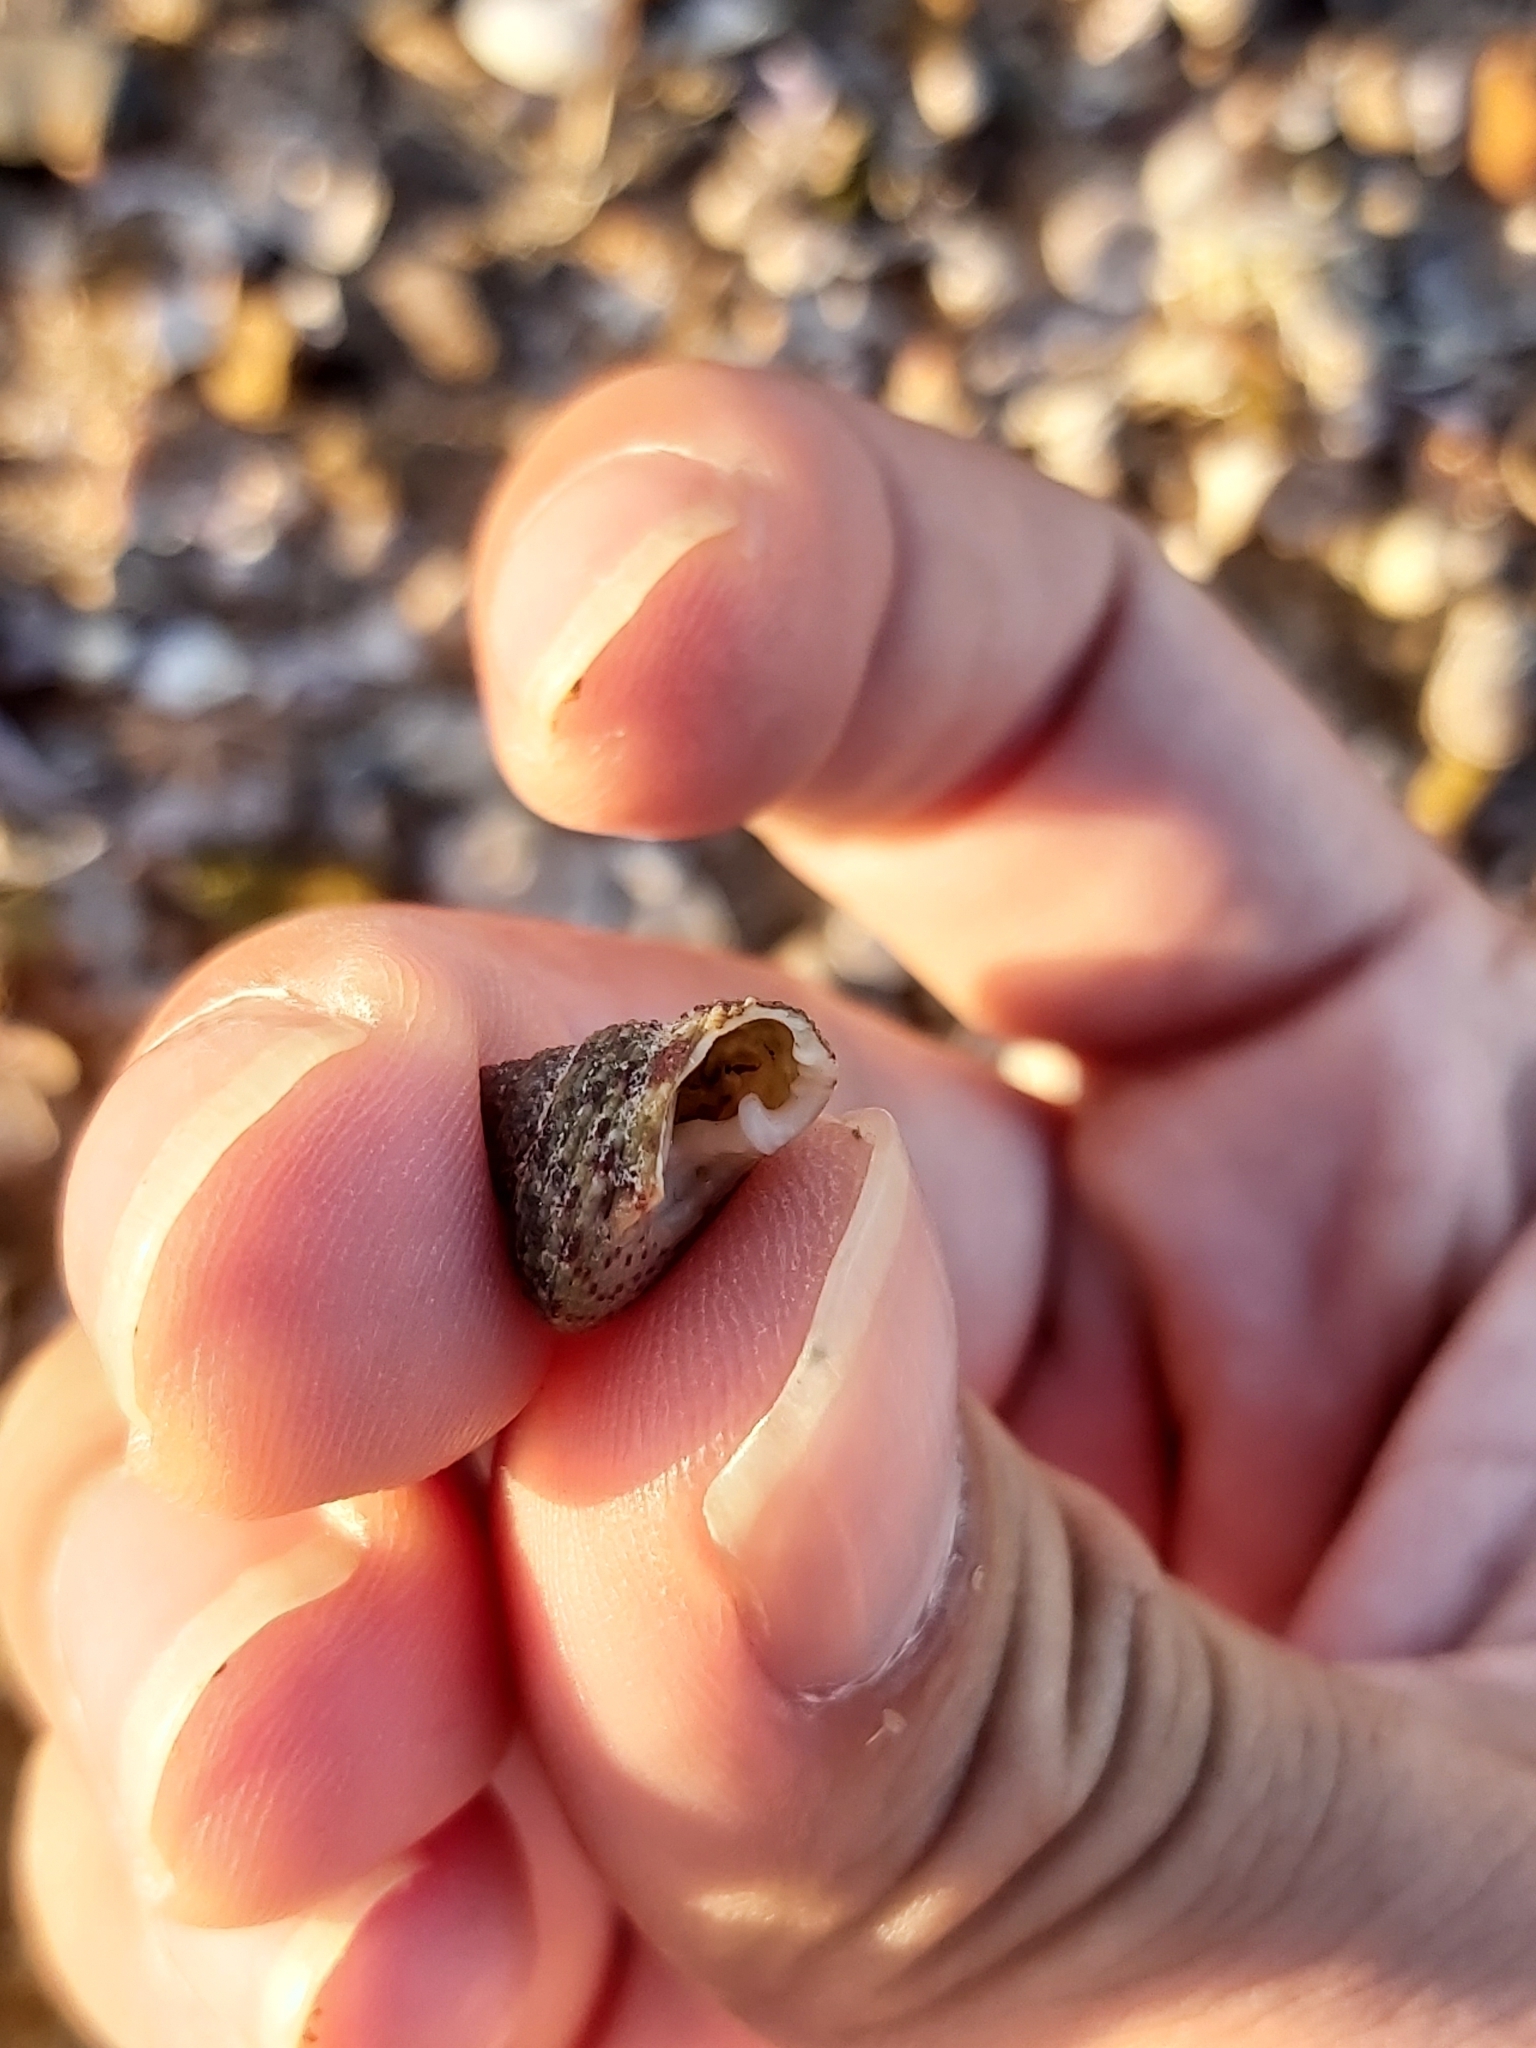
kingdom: Animalia
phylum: Mollusca
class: Gastropoda
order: Trochida
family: Trochidae
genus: Clanculus
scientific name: Clanculus clangulus
